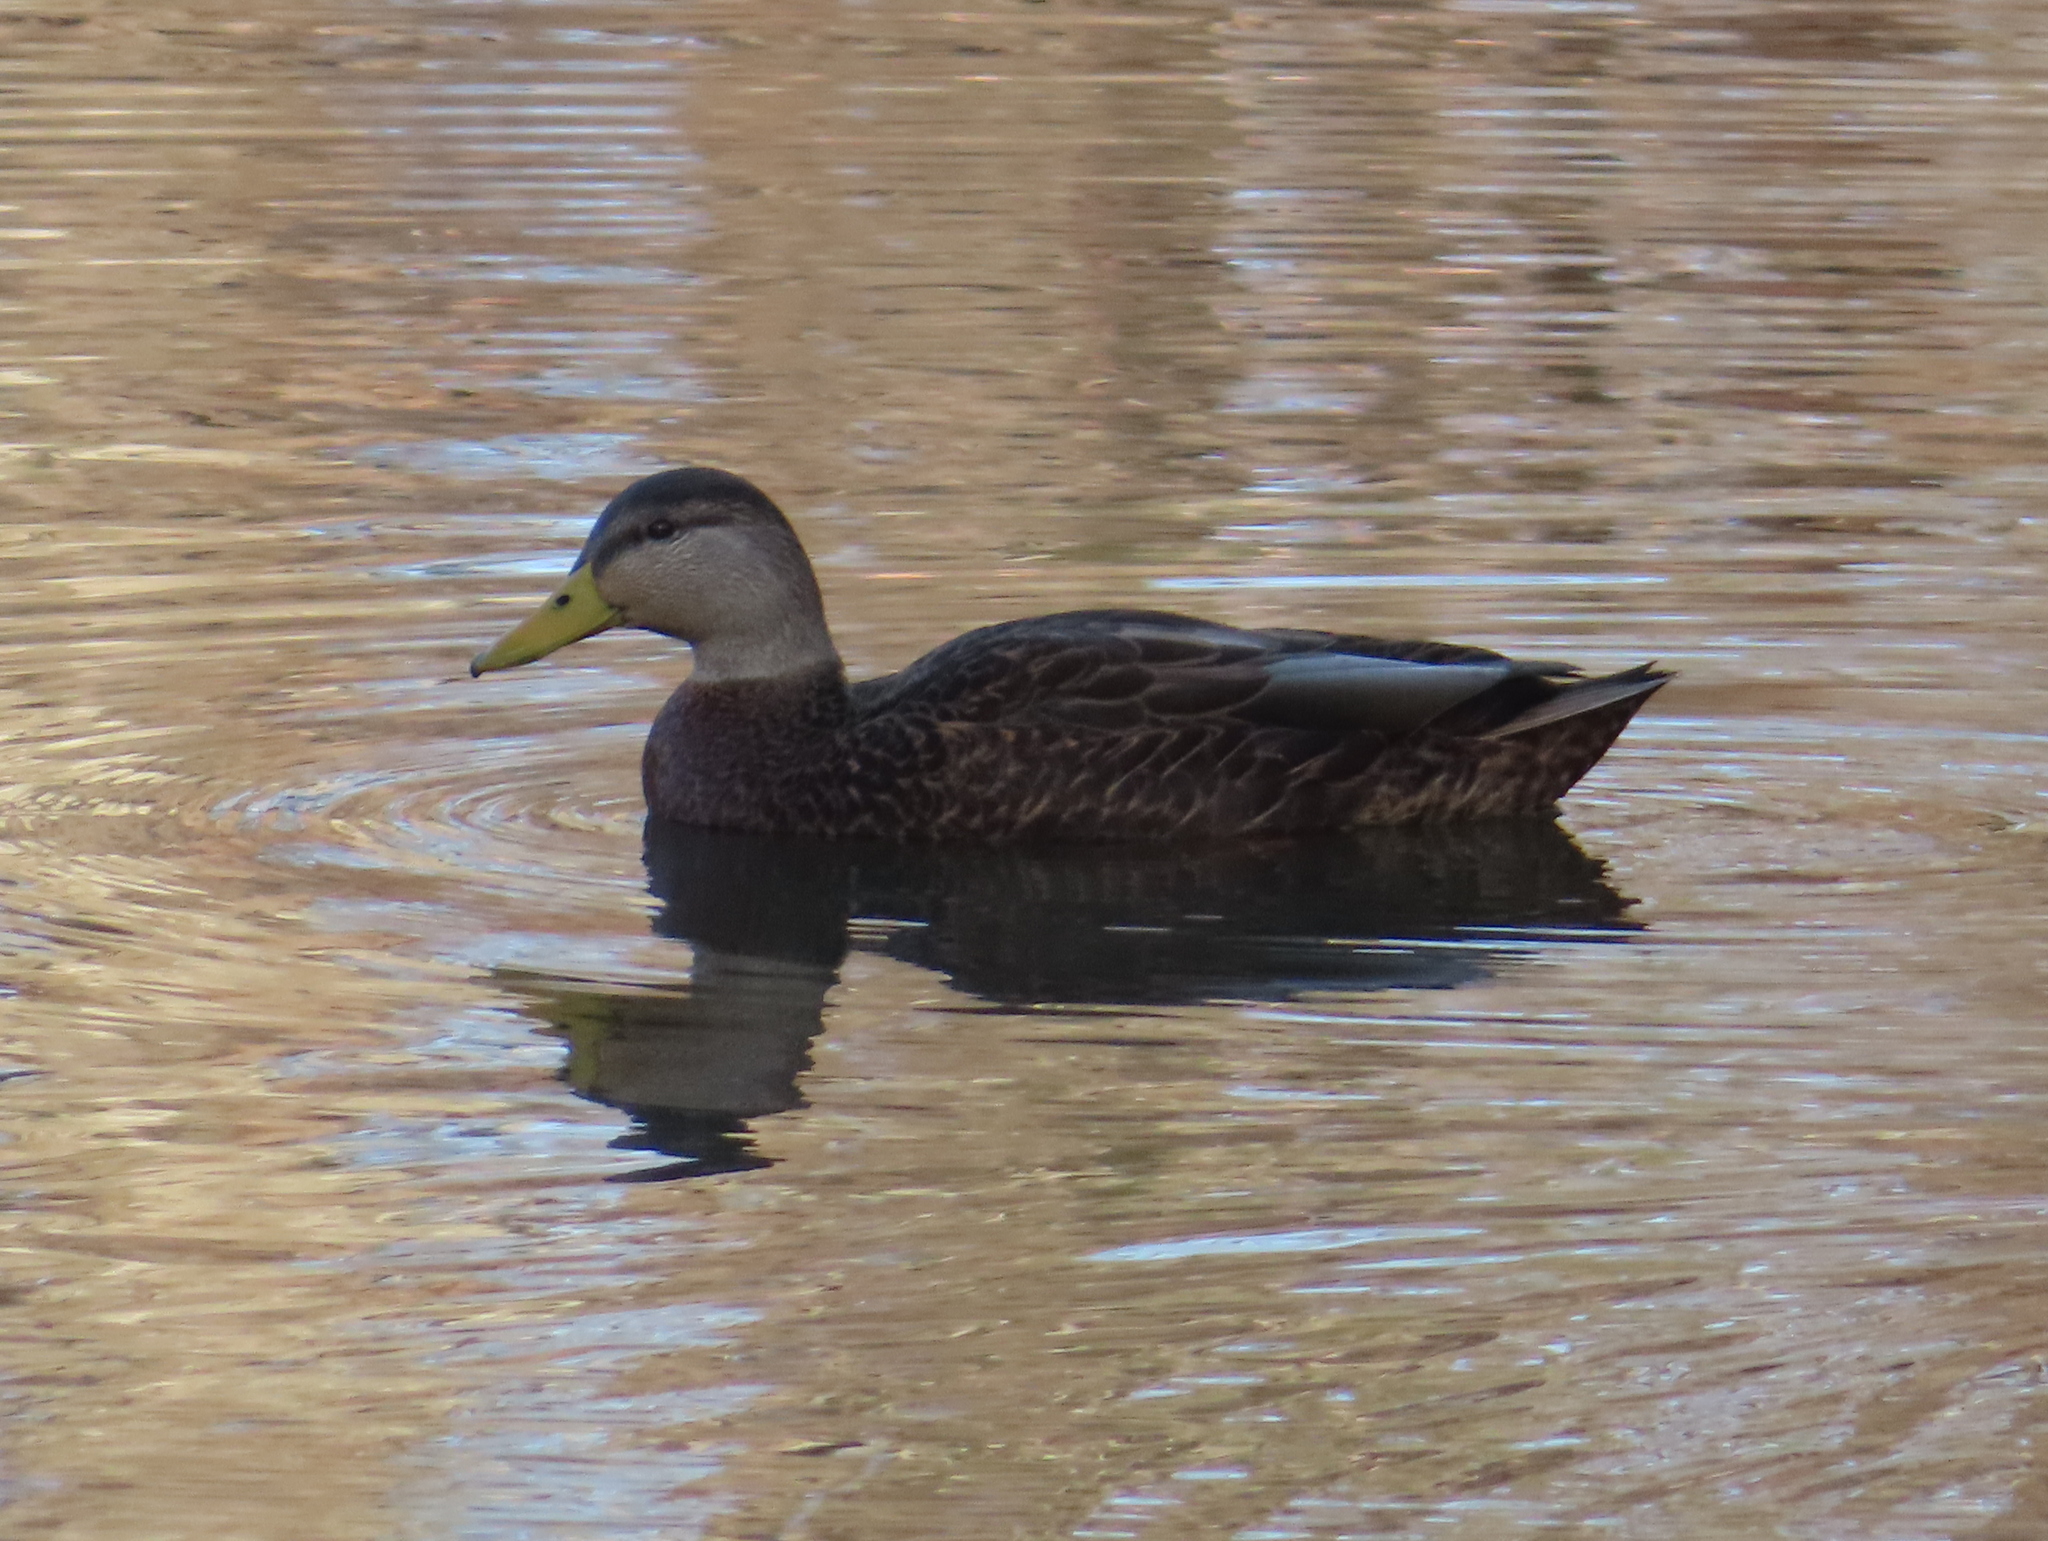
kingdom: Animalia
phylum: Chordata
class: Aves
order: Anseriformes
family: Anatidae
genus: Anas
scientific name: Anas rubripes
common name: American black duck
